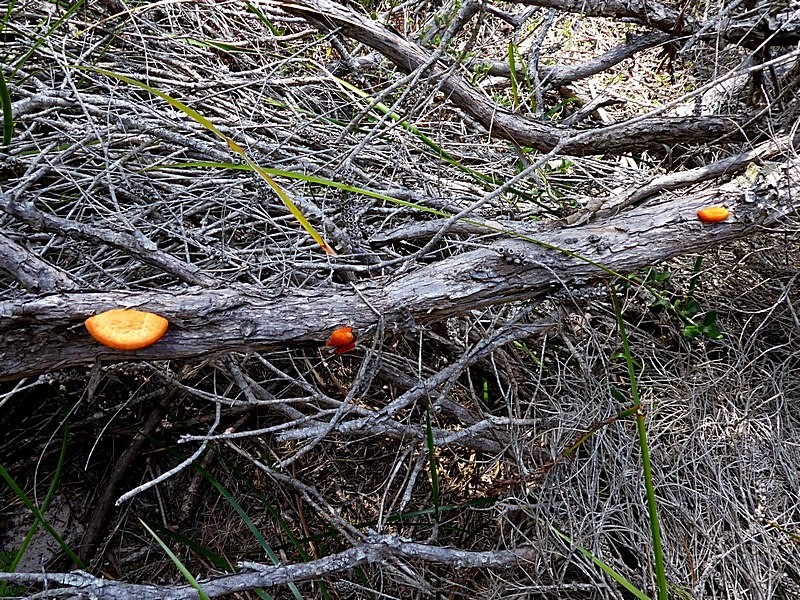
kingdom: Fungi
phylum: Basidiomycota
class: Agaricomycetes
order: Polyporales
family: Polyporaceae
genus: Trametes
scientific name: Trametes coccinea
